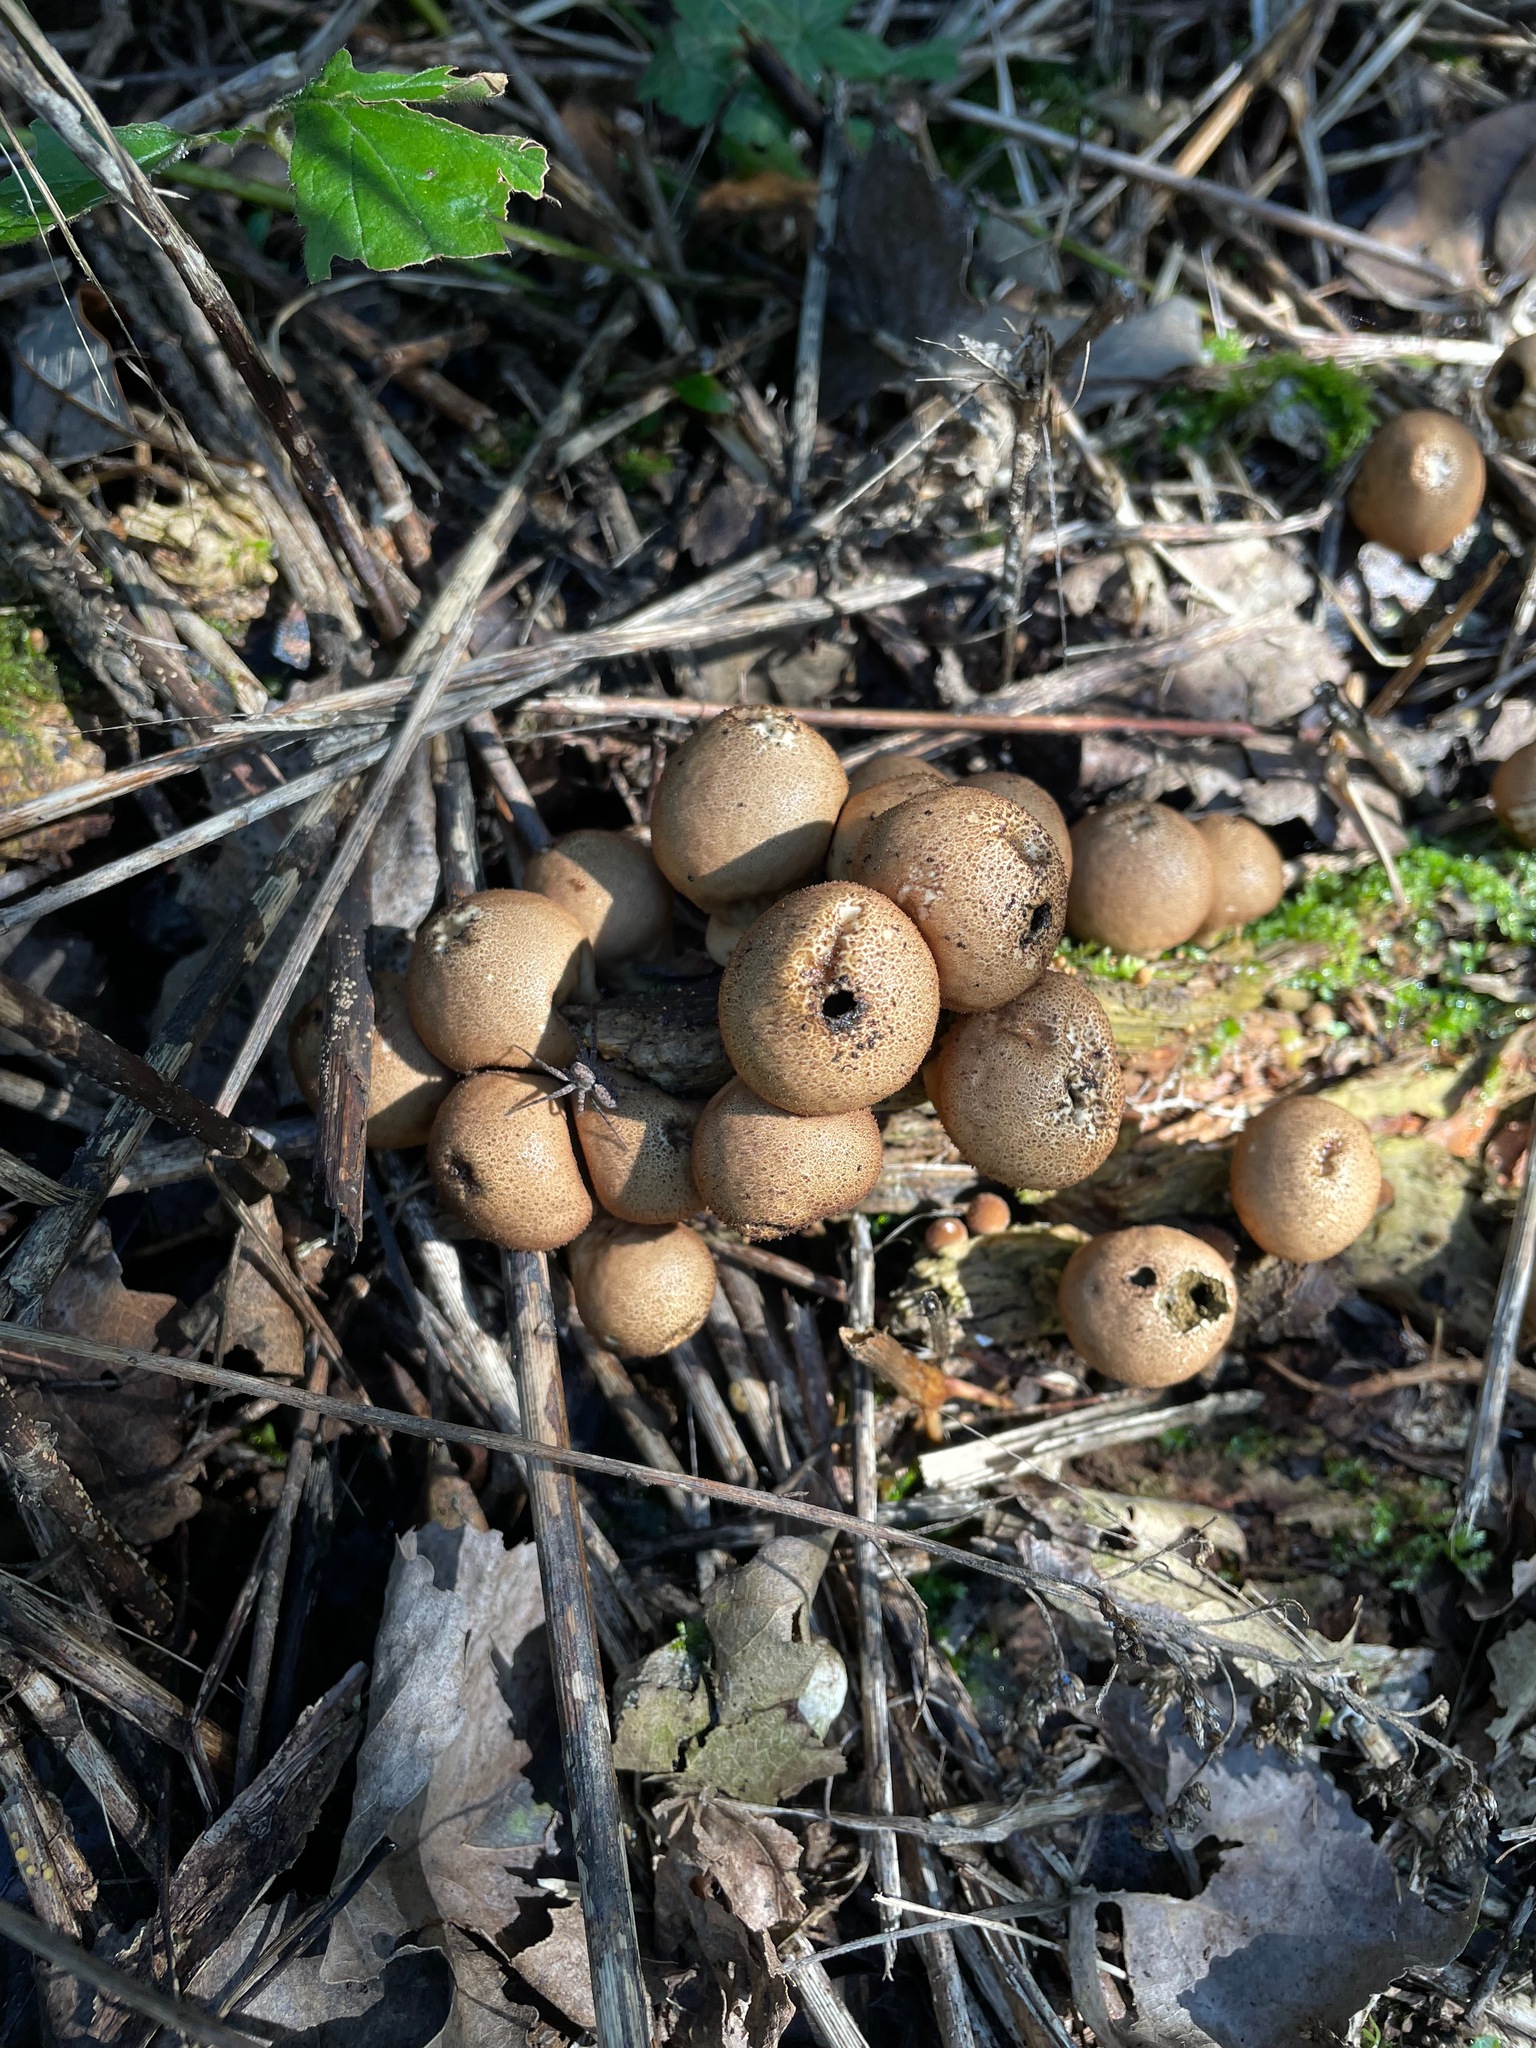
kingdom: Fungi
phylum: Basidiomycota
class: Agaricomycetes
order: Agaricales
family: Lycoperdaceae
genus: Apioperdon
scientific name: Apioperdon pyriforme
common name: Pear-shaped puffball
